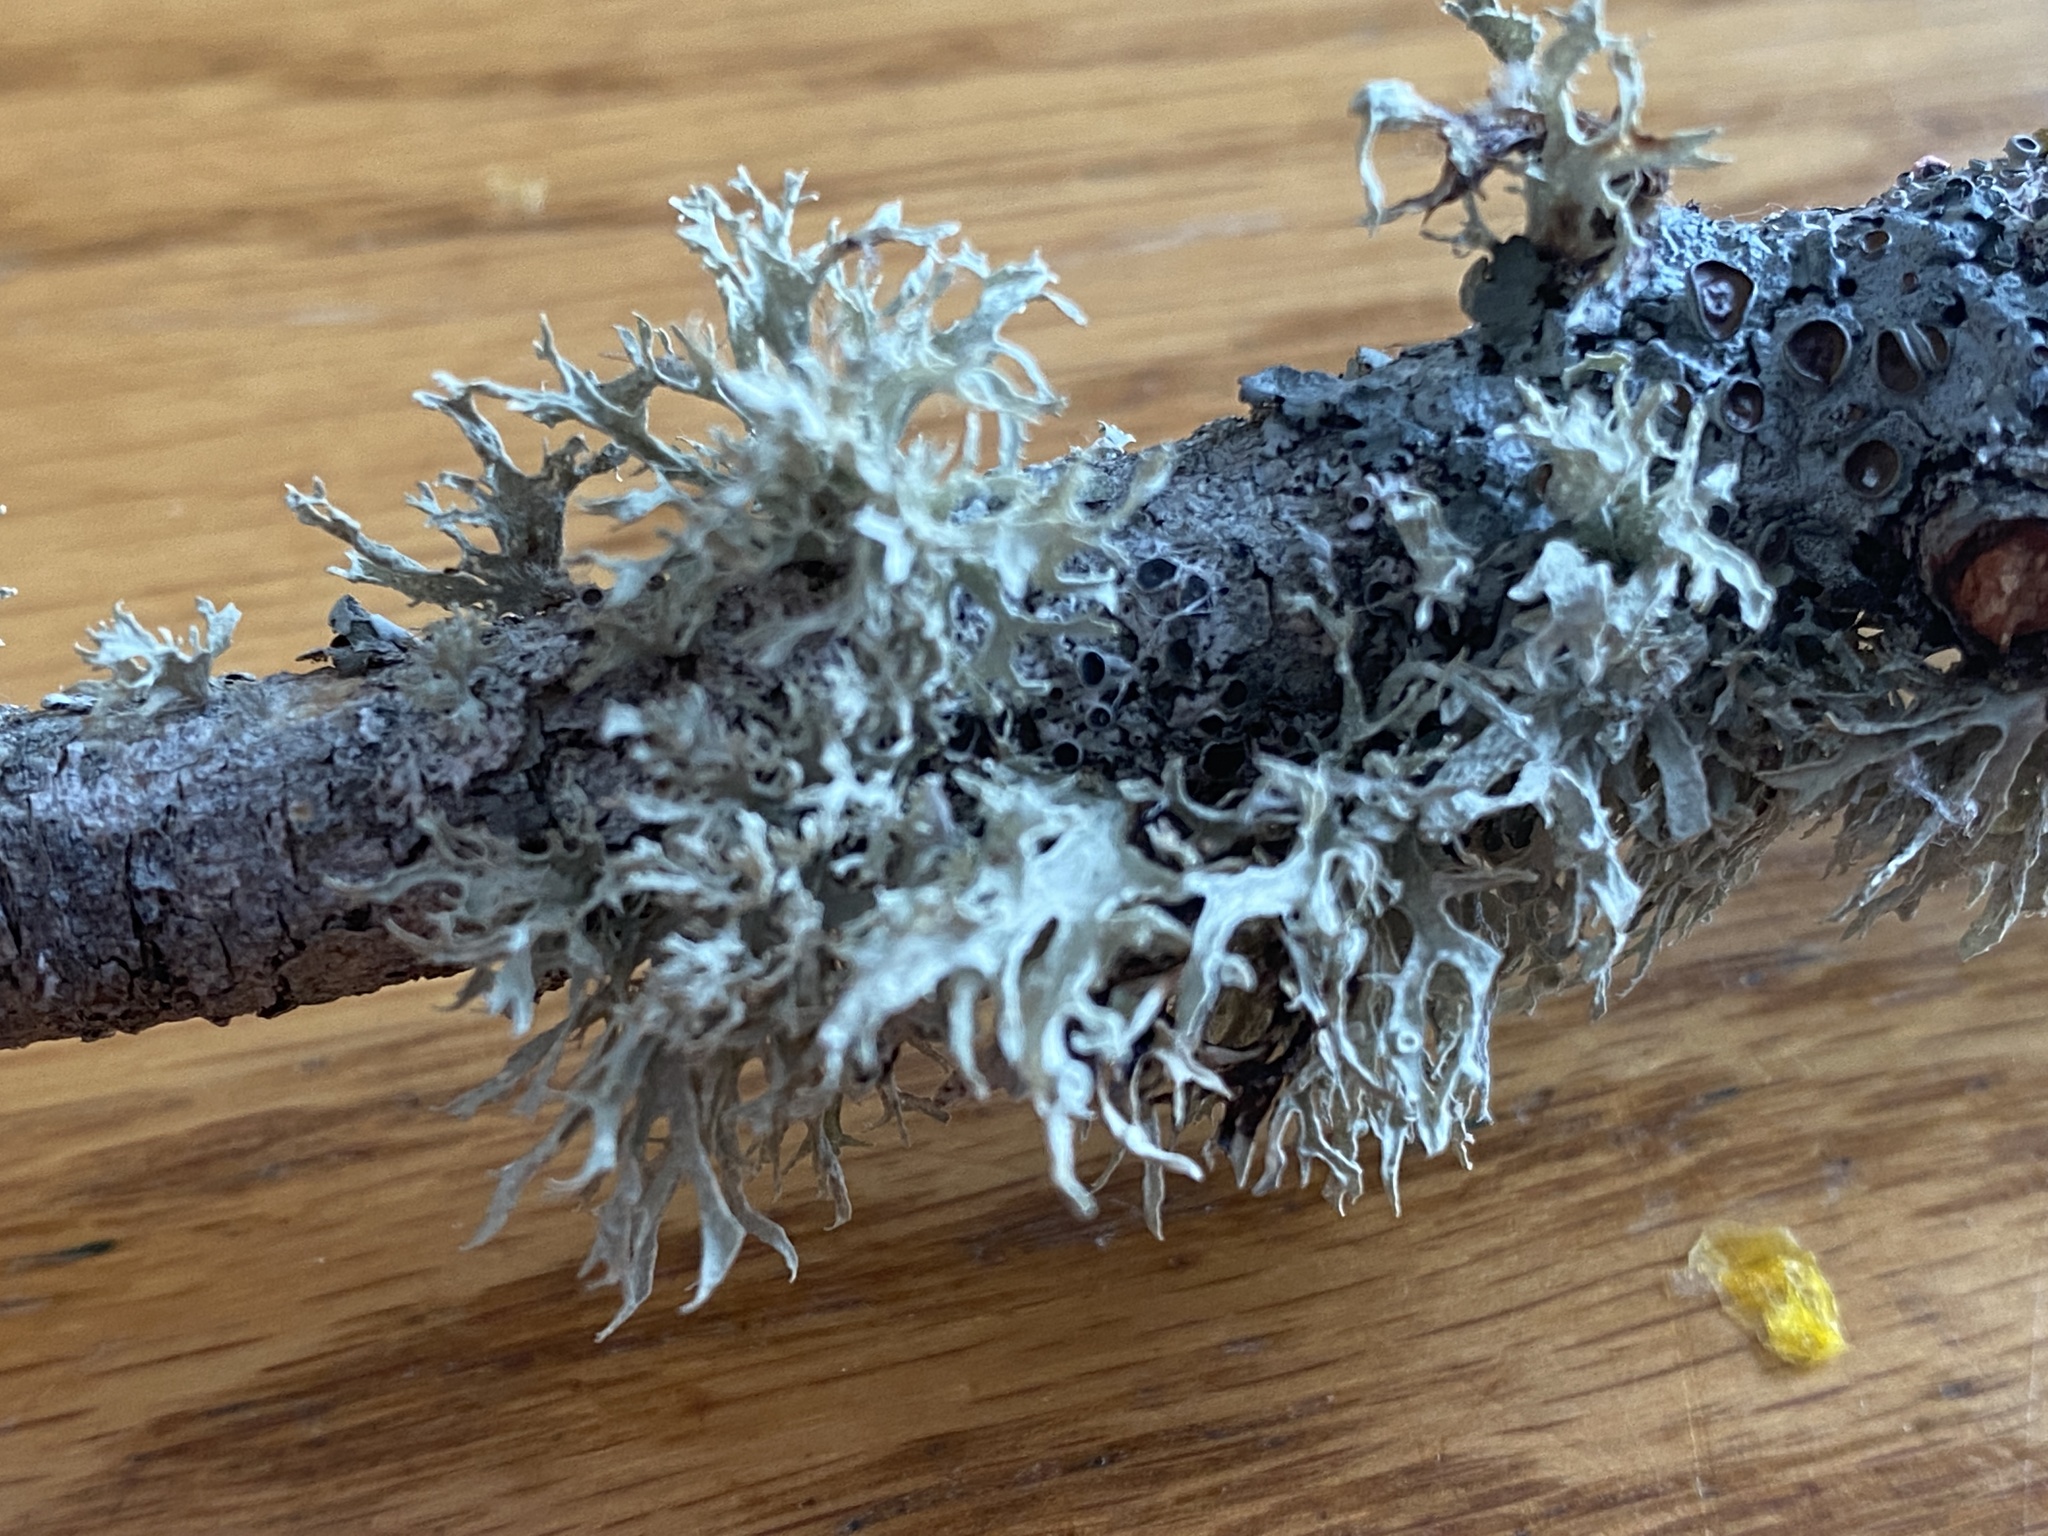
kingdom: Fungi
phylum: Ascomycota
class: Lecanoromycetes
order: Lecanorales
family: Ramalinaceae
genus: Ramalina
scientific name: Ramalina americana
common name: Sinewed bush lichen
